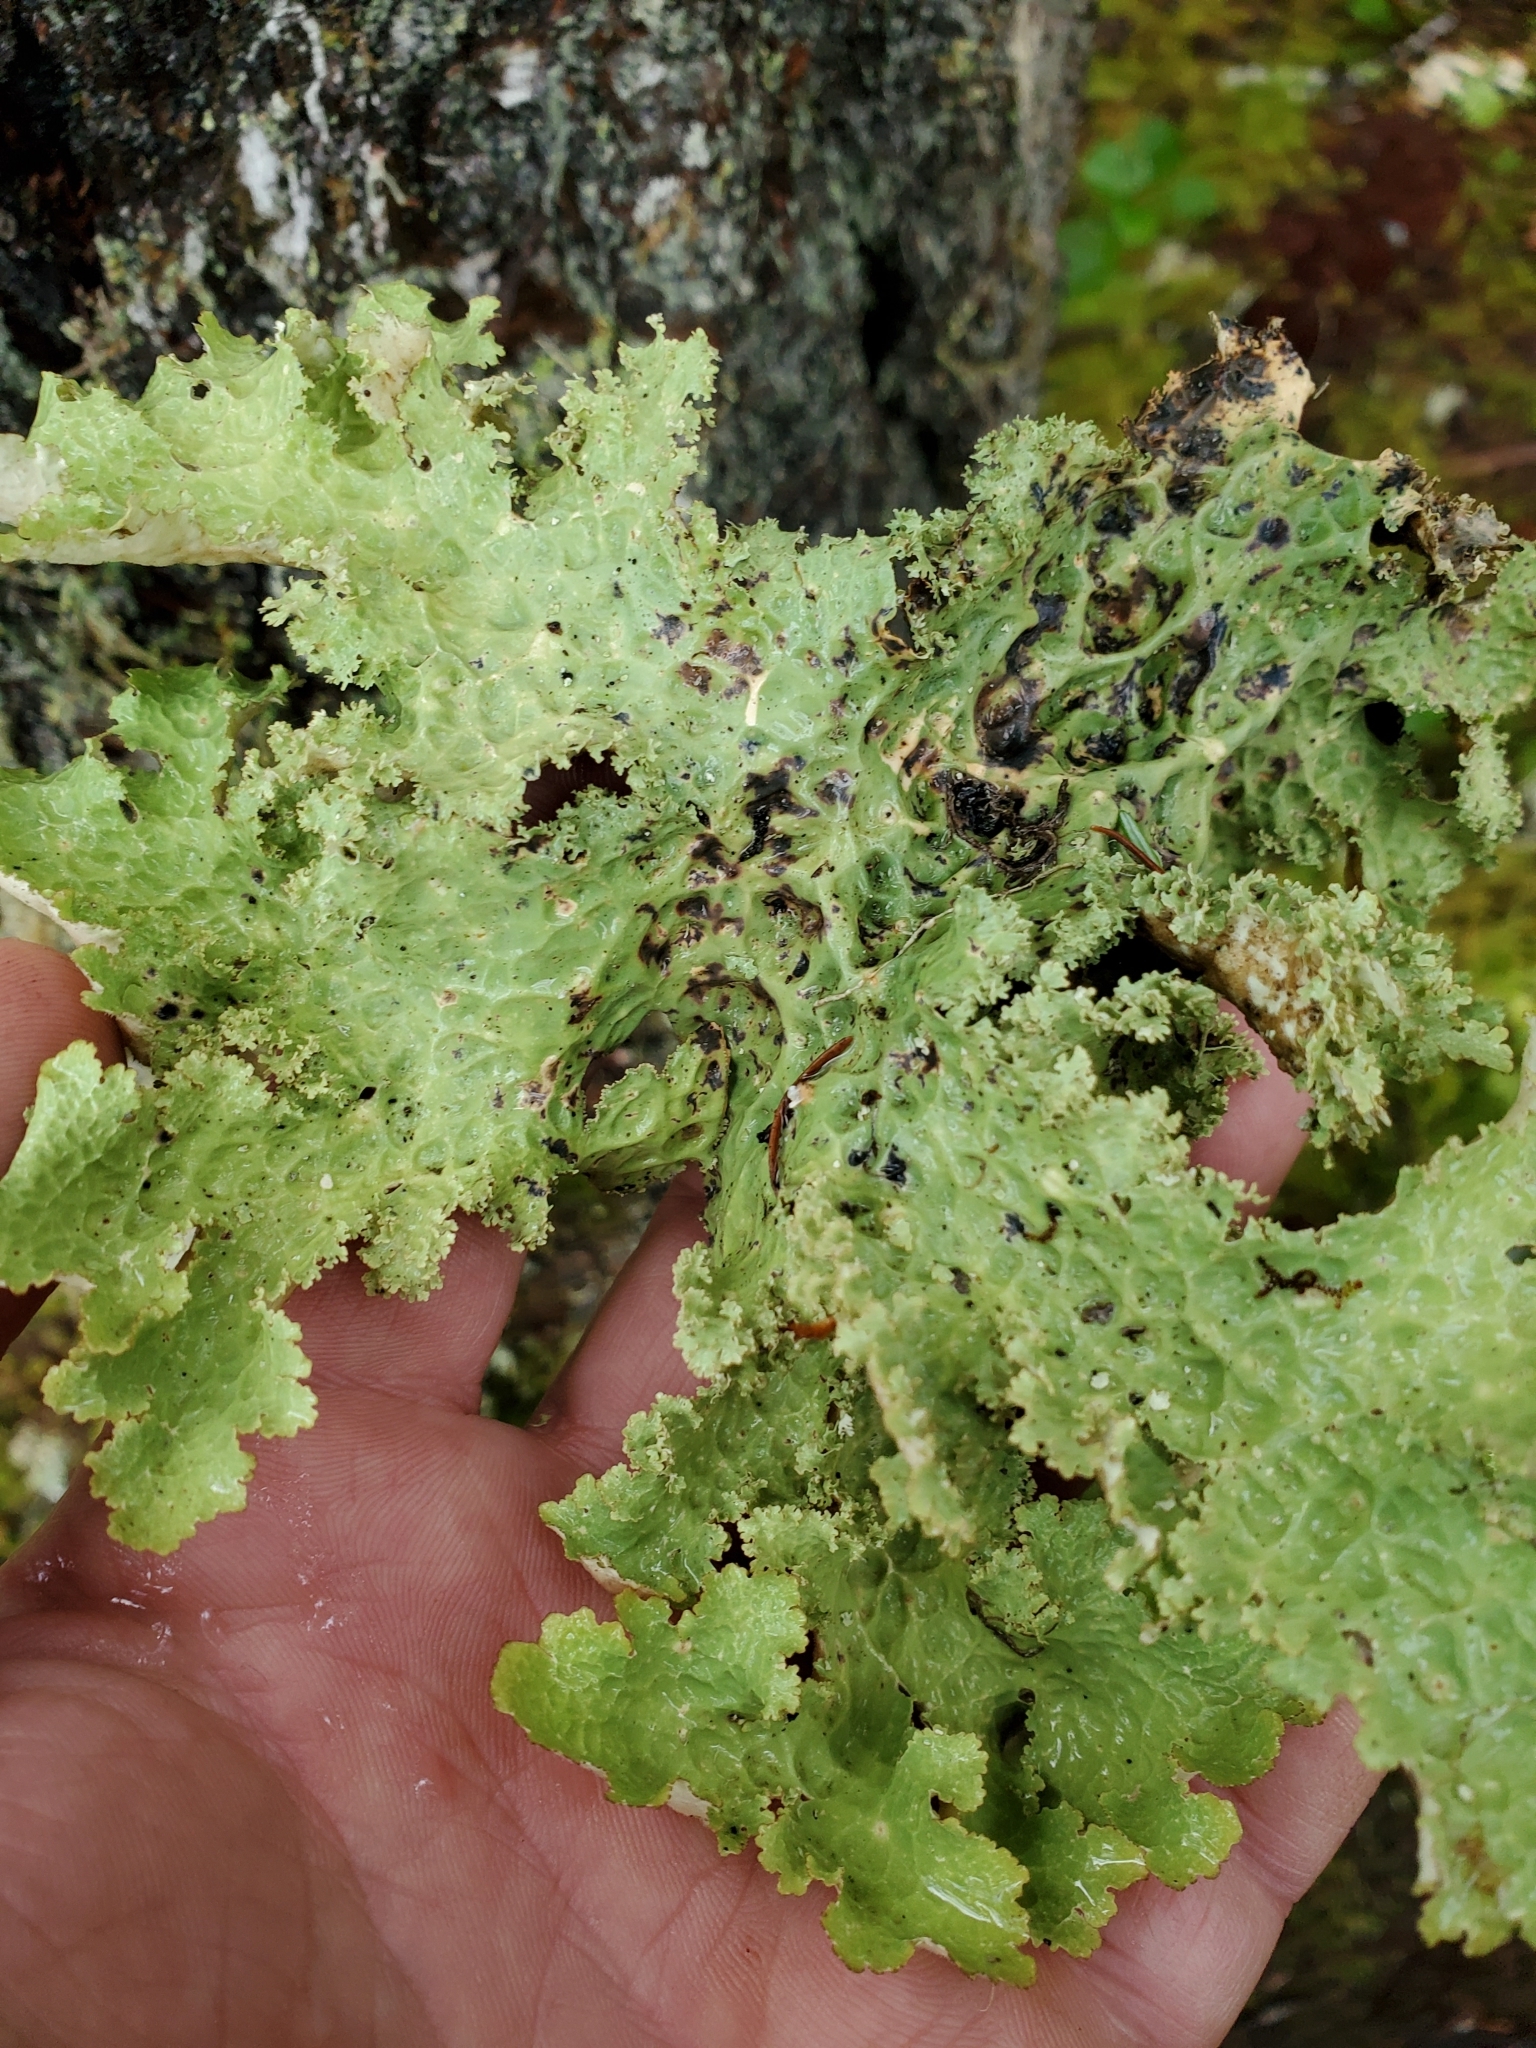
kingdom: Fungi
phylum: Ascomycota
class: Lecanoromycetes
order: Peltigerales
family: Lobariaceae
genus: Lobaria
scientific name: Lobaria oregana
